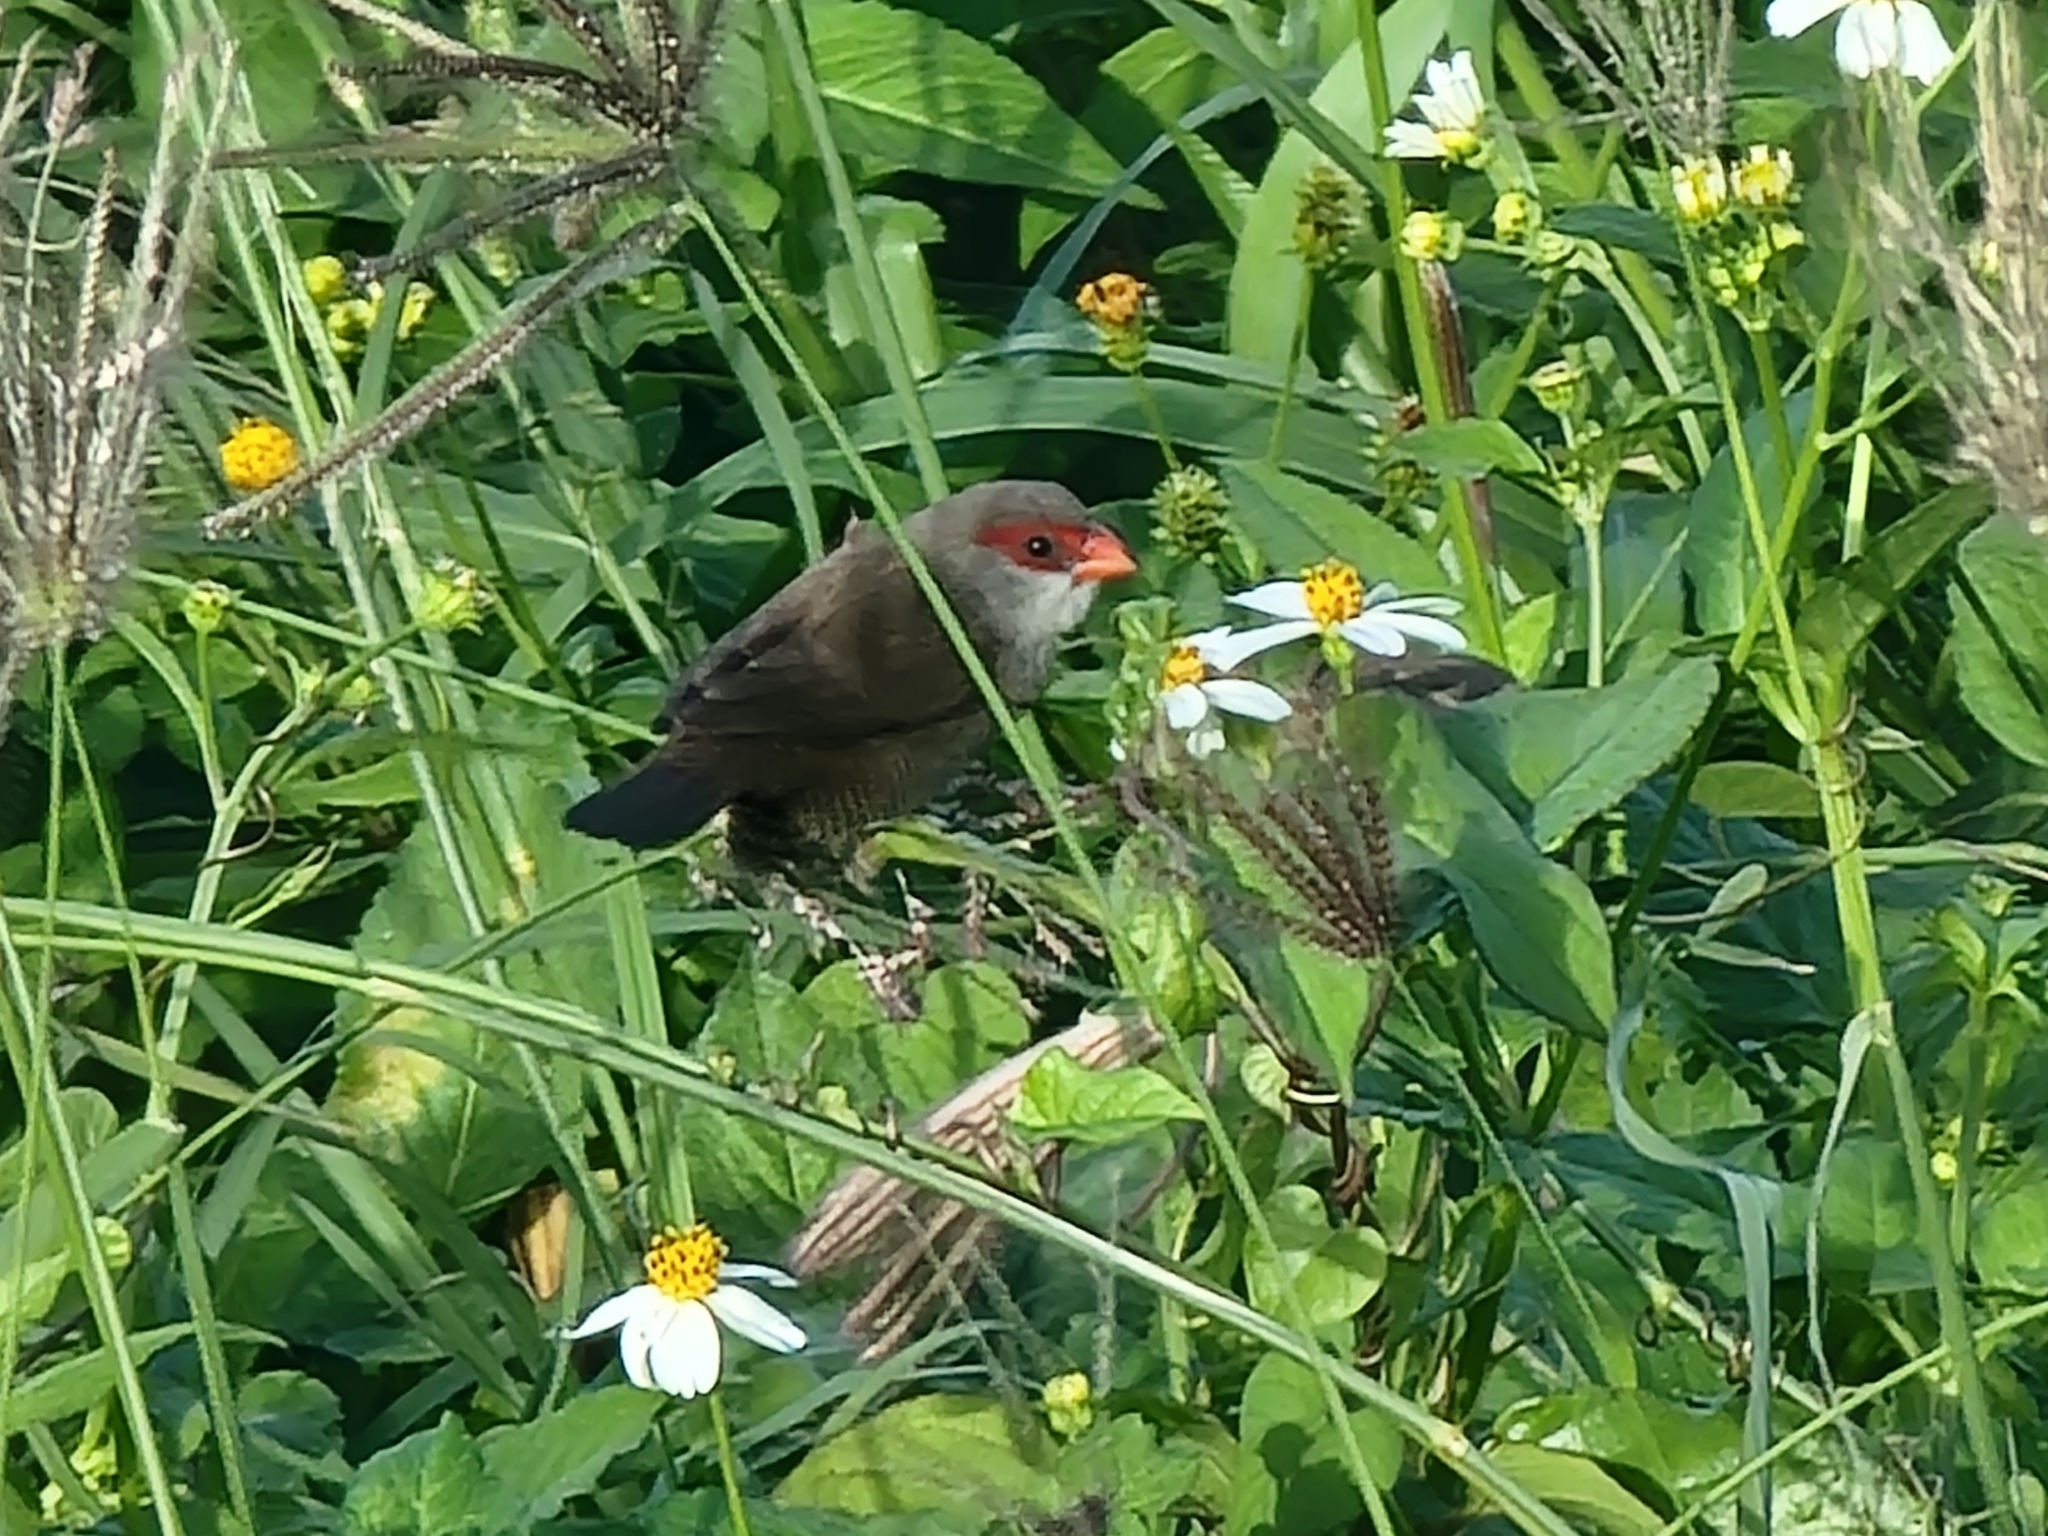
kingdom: Animalia
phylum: Chordata
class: Aves
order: Passeriformes
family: Estrildidae
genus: Estrilda
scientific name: Estrilda astrild
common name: Common waxbill
